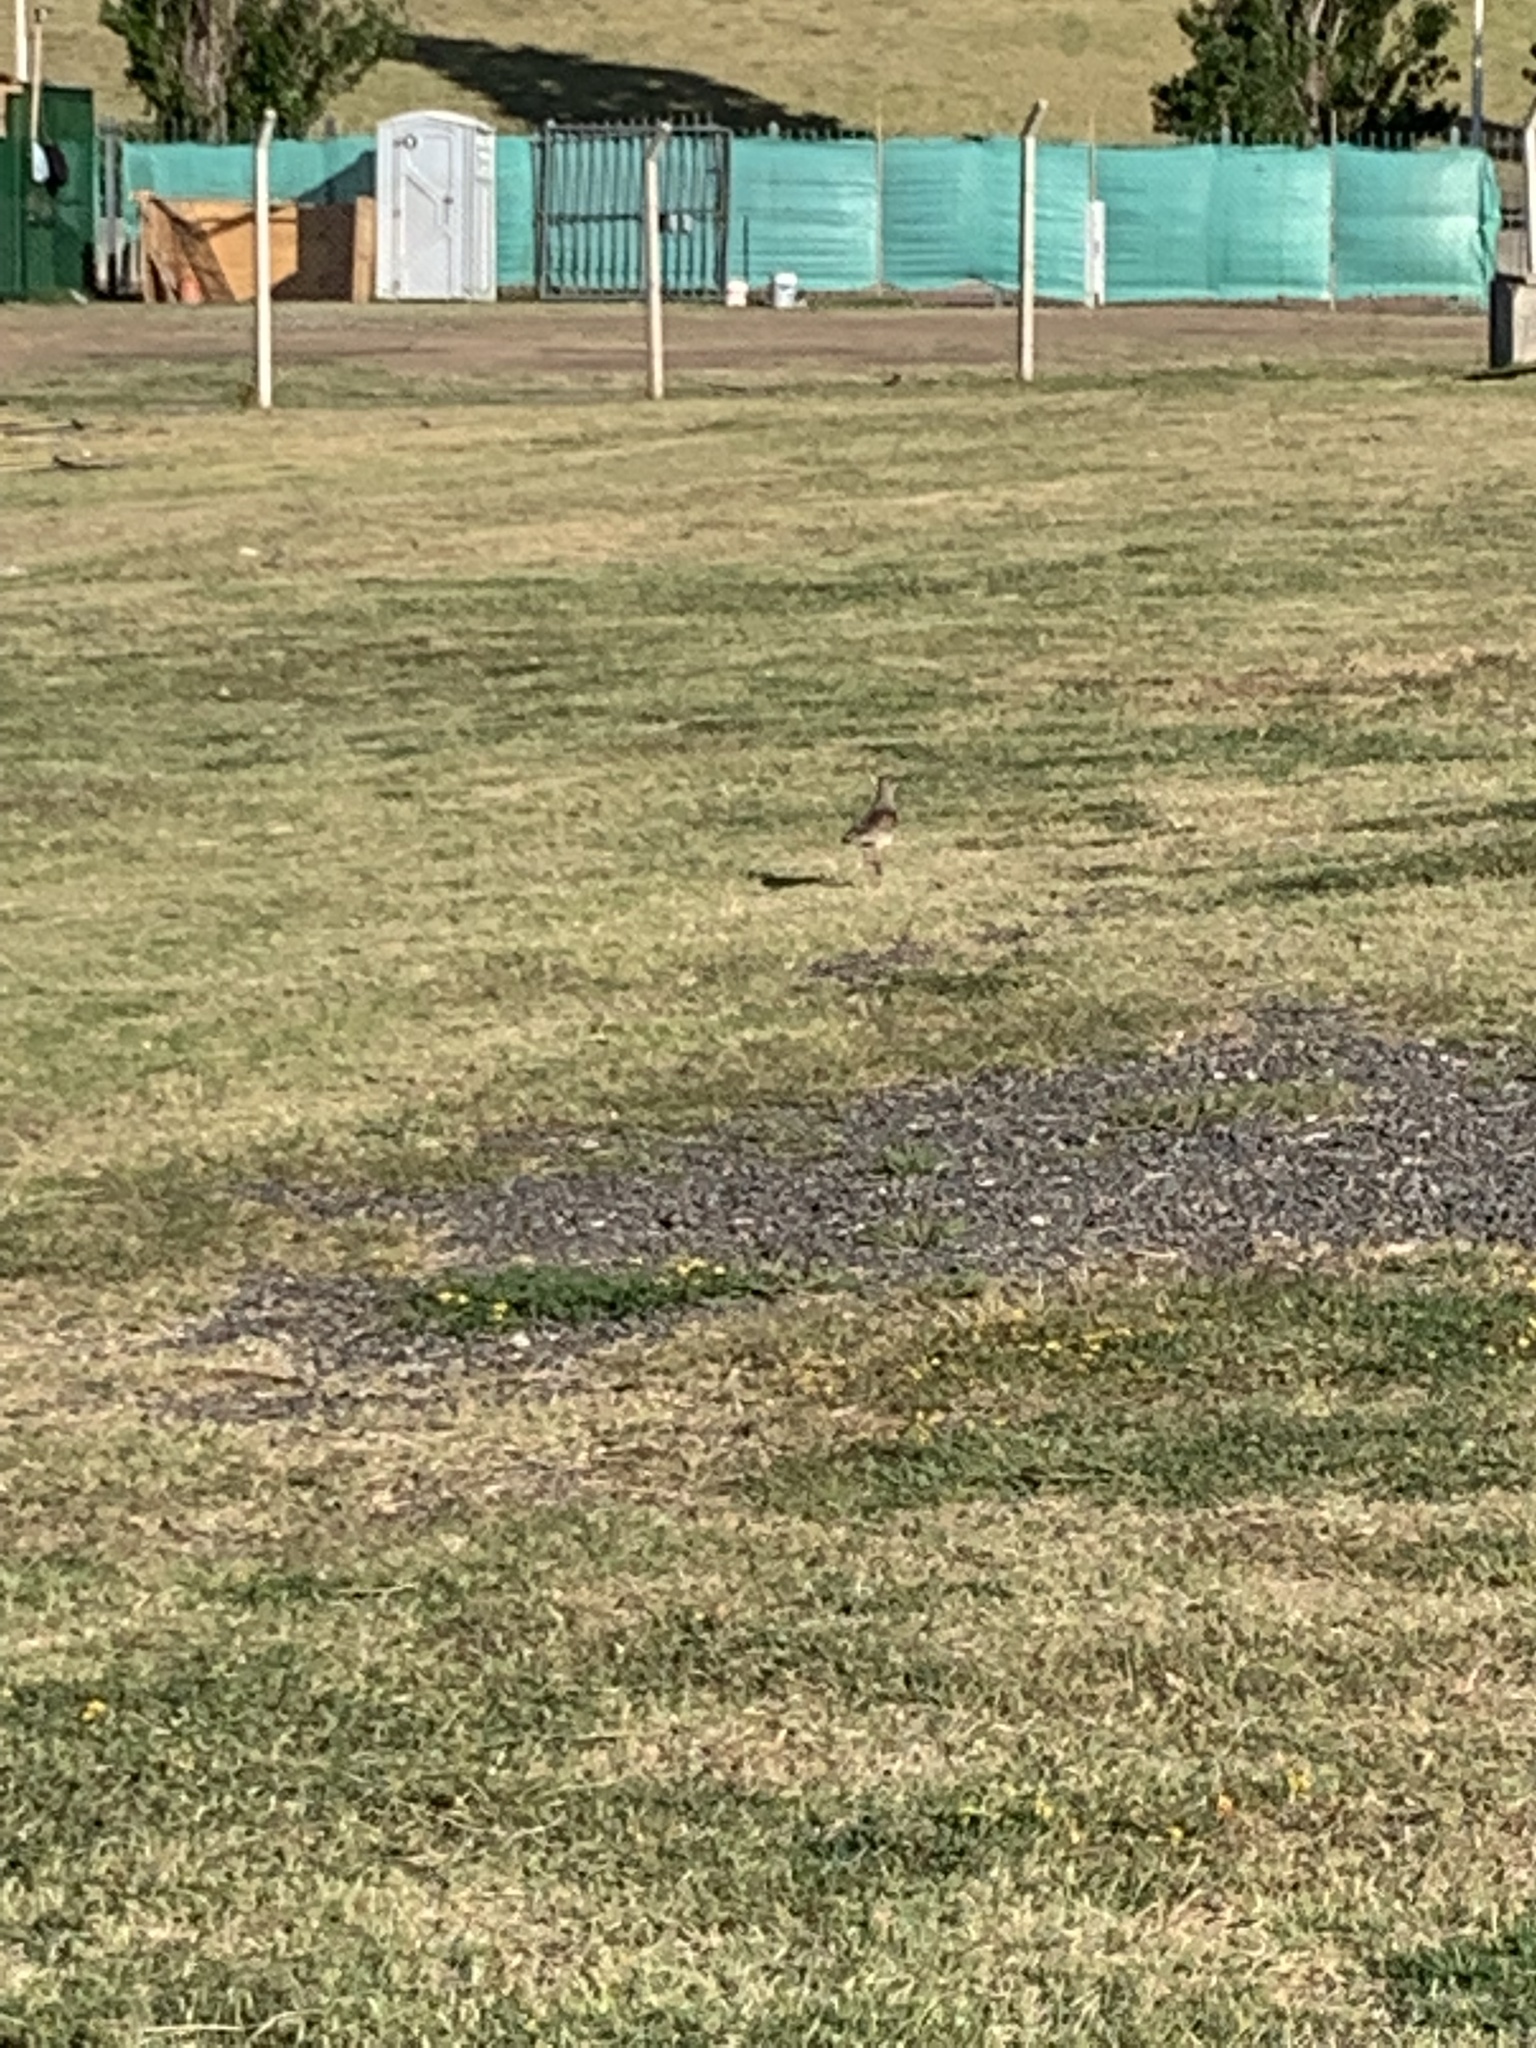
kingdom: Animalia
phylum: Chordata
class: Aves
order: Charadriiformes
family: Charadriidae
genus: Vanellus
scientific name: Vanellus chilensis
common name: Southern lapwing
